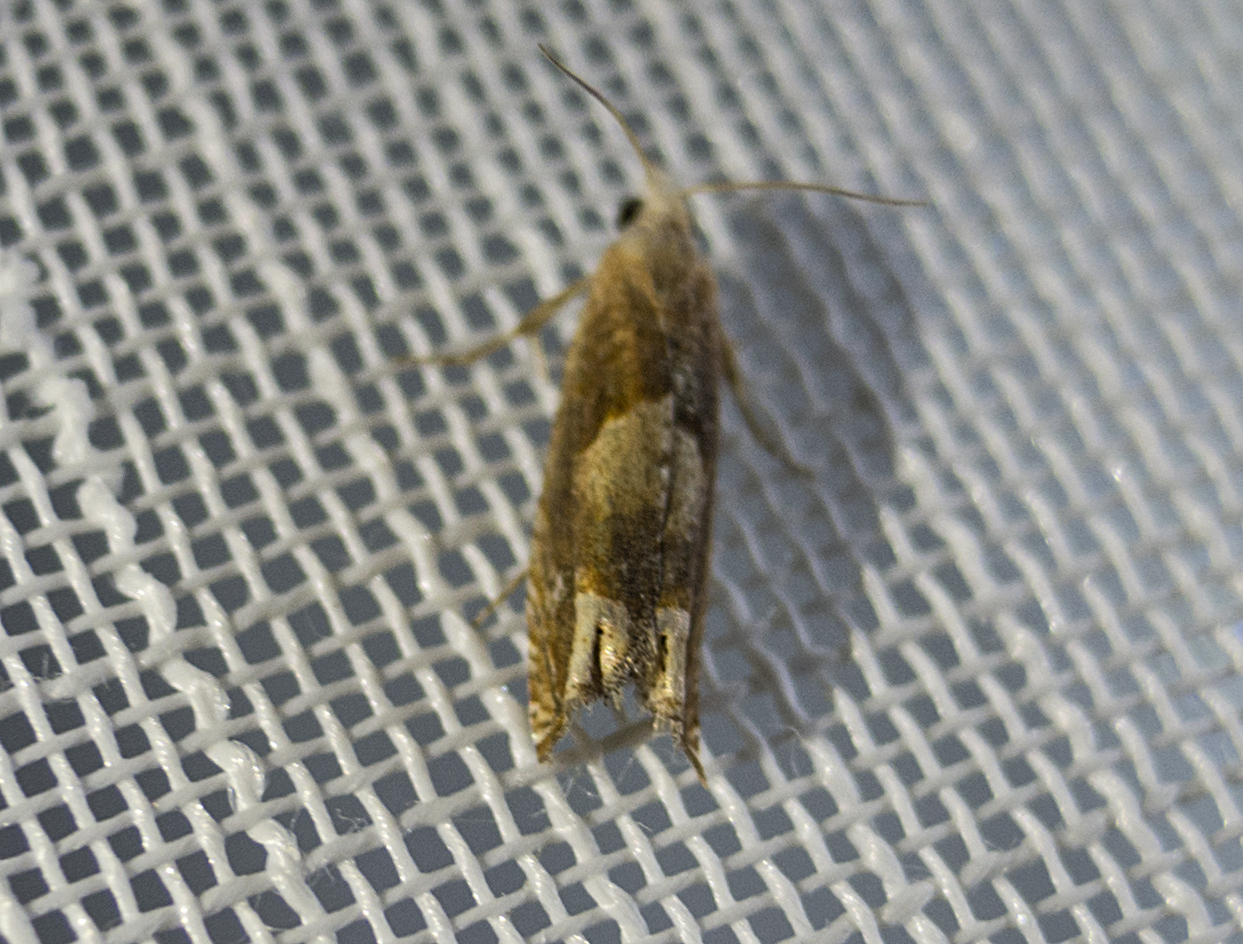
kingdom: Animalia
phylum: Arthropoda
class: Insecta
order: Lepidoptera
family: Tortricidae
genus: Eucosma
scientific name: Eucosma conterminana
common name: Pale lettuce bell
